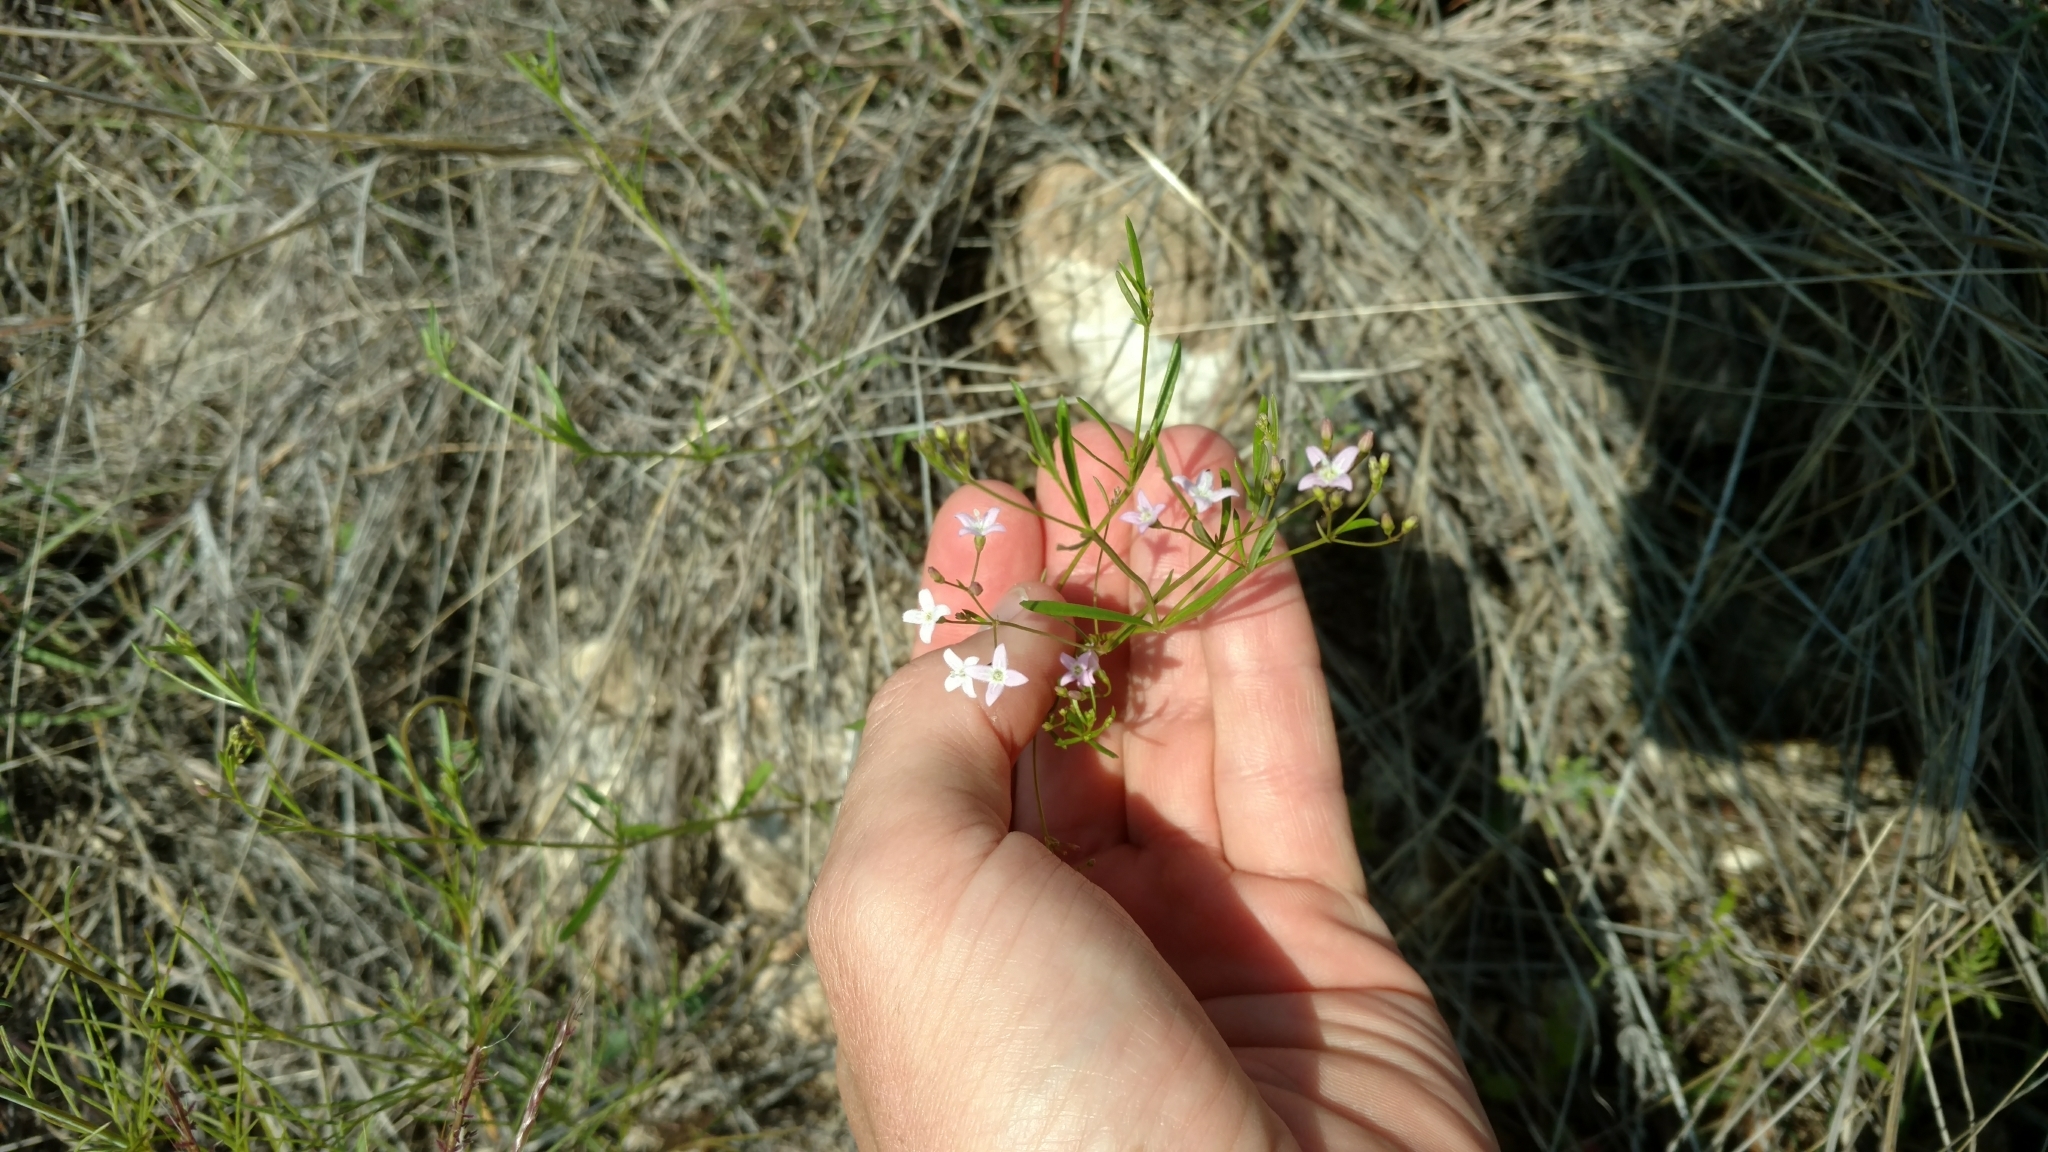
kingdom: Plantae
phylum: Tracheophyta
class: Magnoliopsida
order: Gentianales
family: Rubiaceae
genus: Stenaria
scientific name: Stenaria nigricans
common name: Diamondflowers
